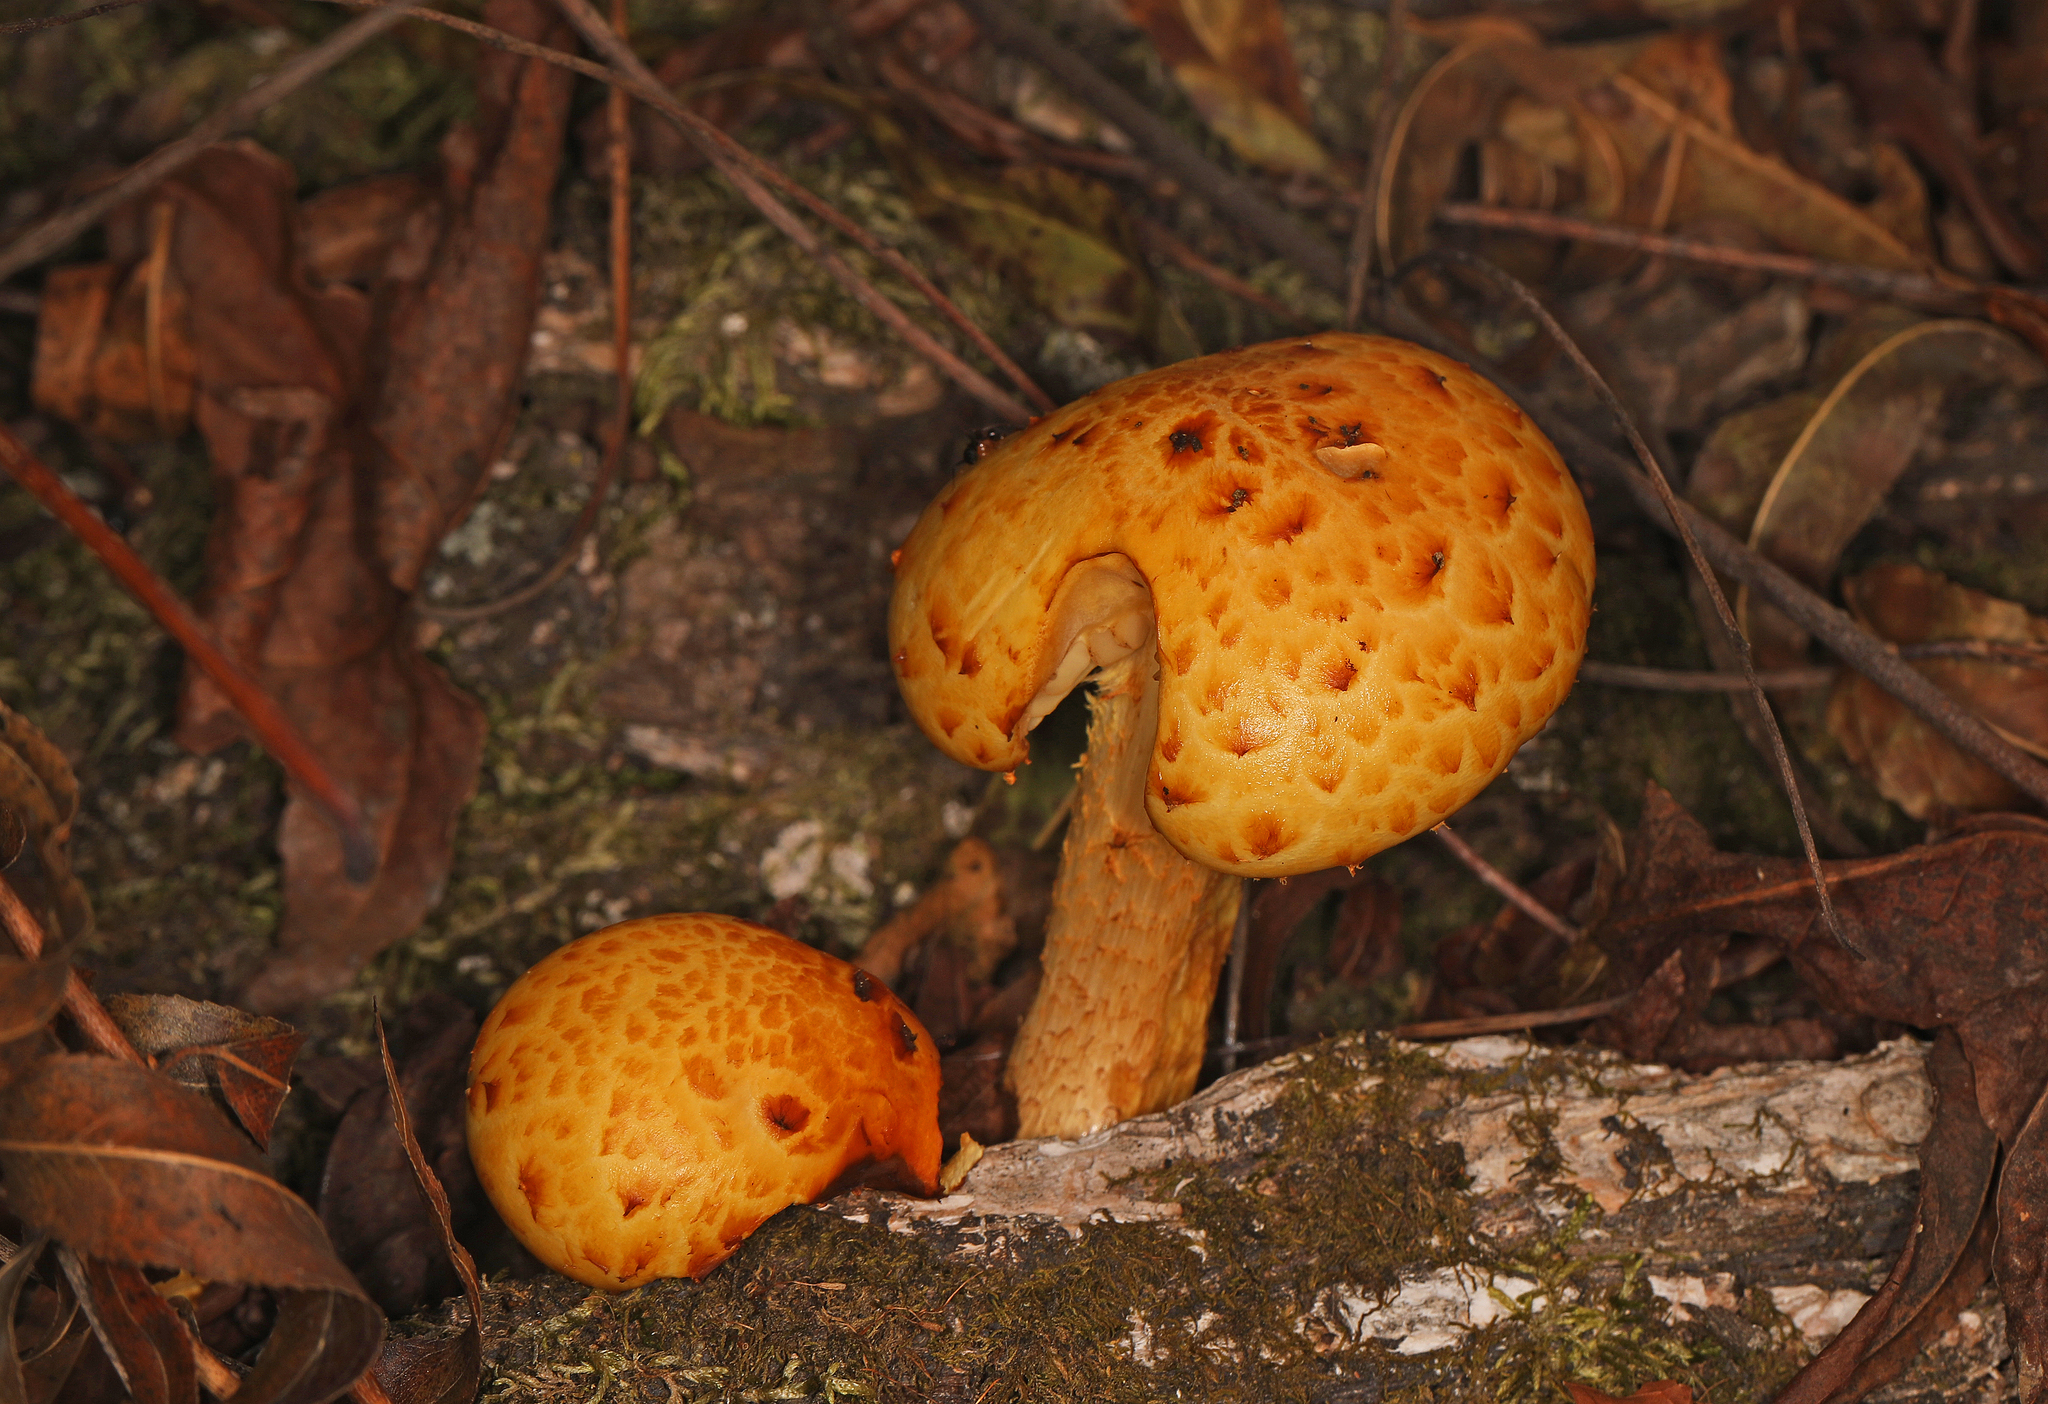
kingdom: Fungi
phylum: Basidiomycota
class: Agaricomycetes
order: Agaricales
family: Strophariaceae
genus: Pholiota
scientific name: Pholiota aurivella
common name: Golden scalycap
